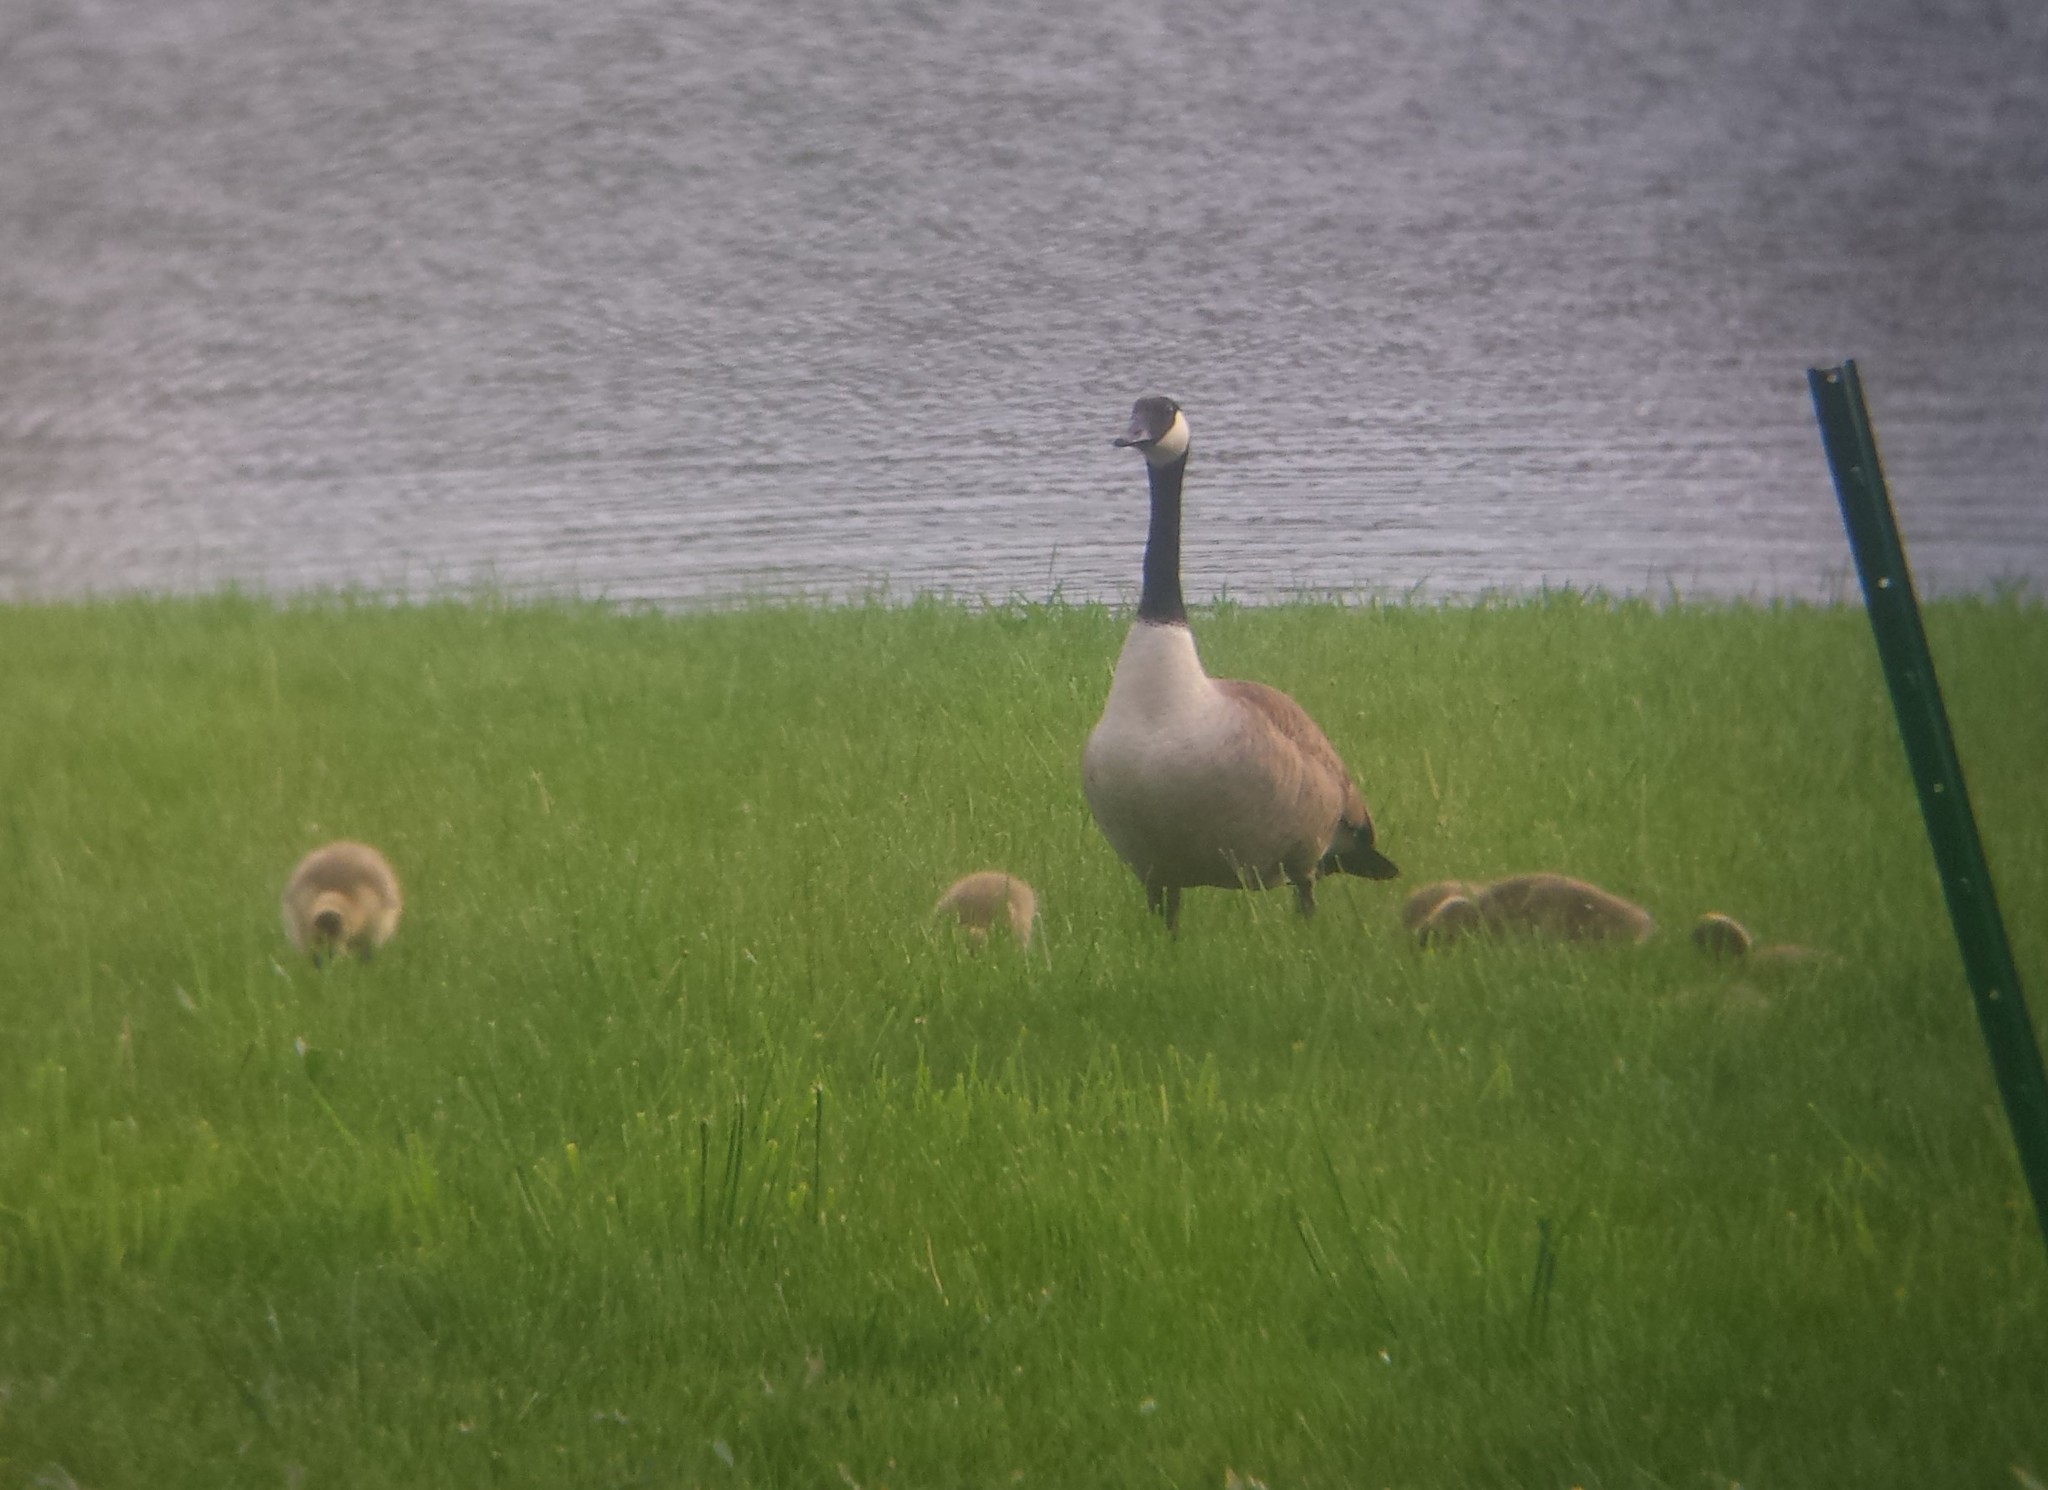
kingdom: Animalia
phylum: Chordata
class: Aves
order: Anseriformes
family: Anatidae
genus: Branta
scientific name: Branta canadensis
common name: Canada goose
